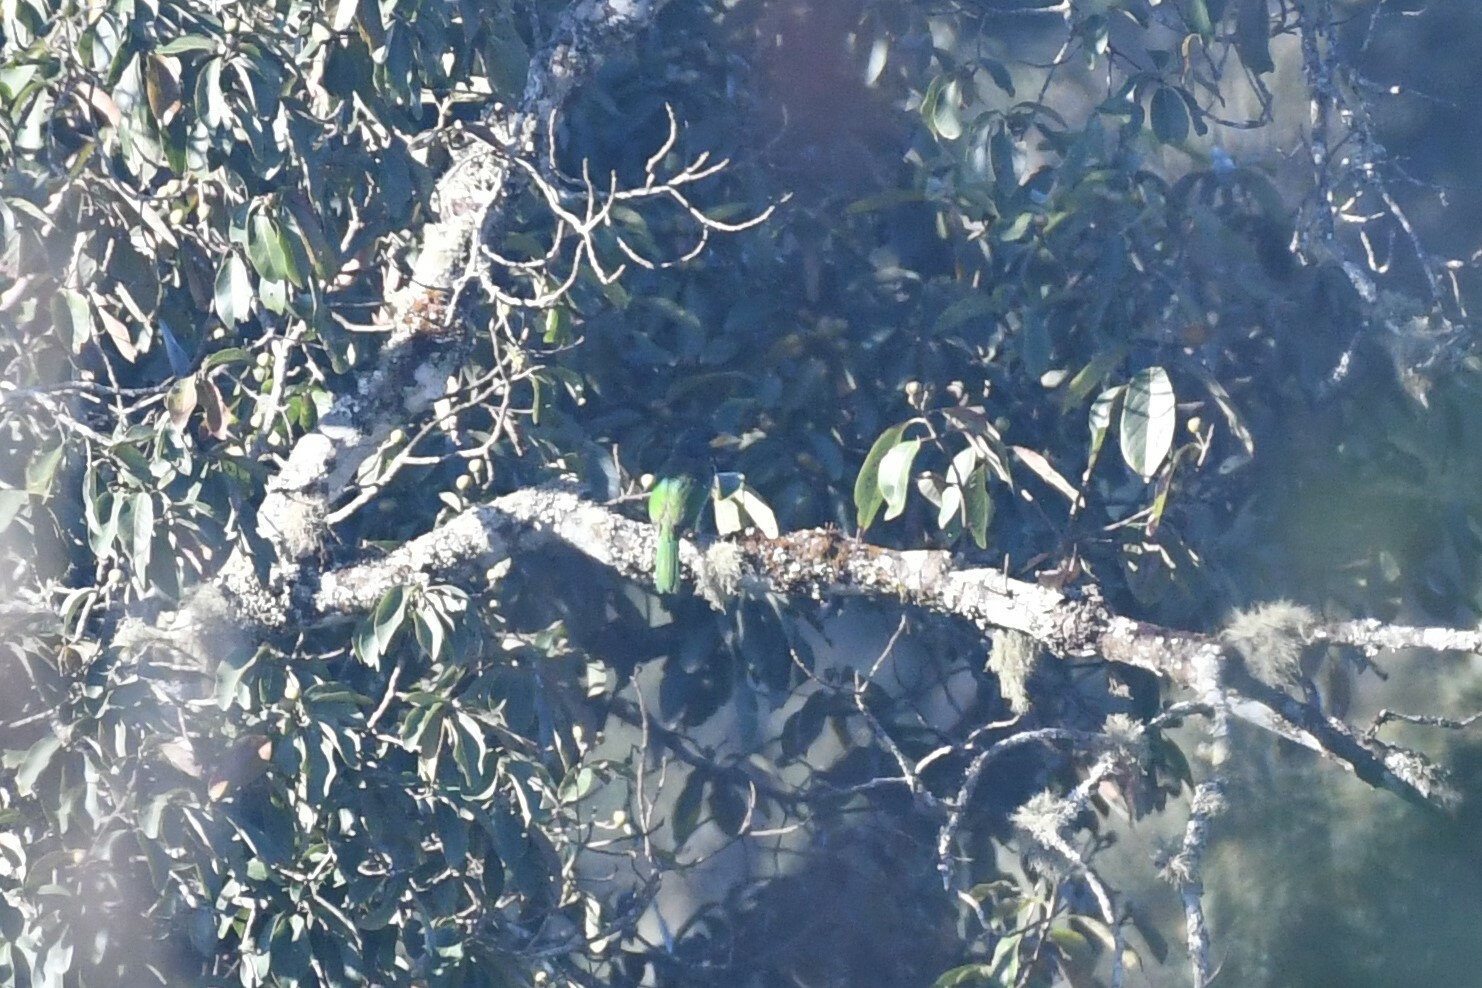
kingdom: Animalia
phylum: Chordata
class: Aves
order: Piciformes
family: Megalaimidae
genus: Psilopogon
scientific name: Psilopogon virens
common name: Great barbet
